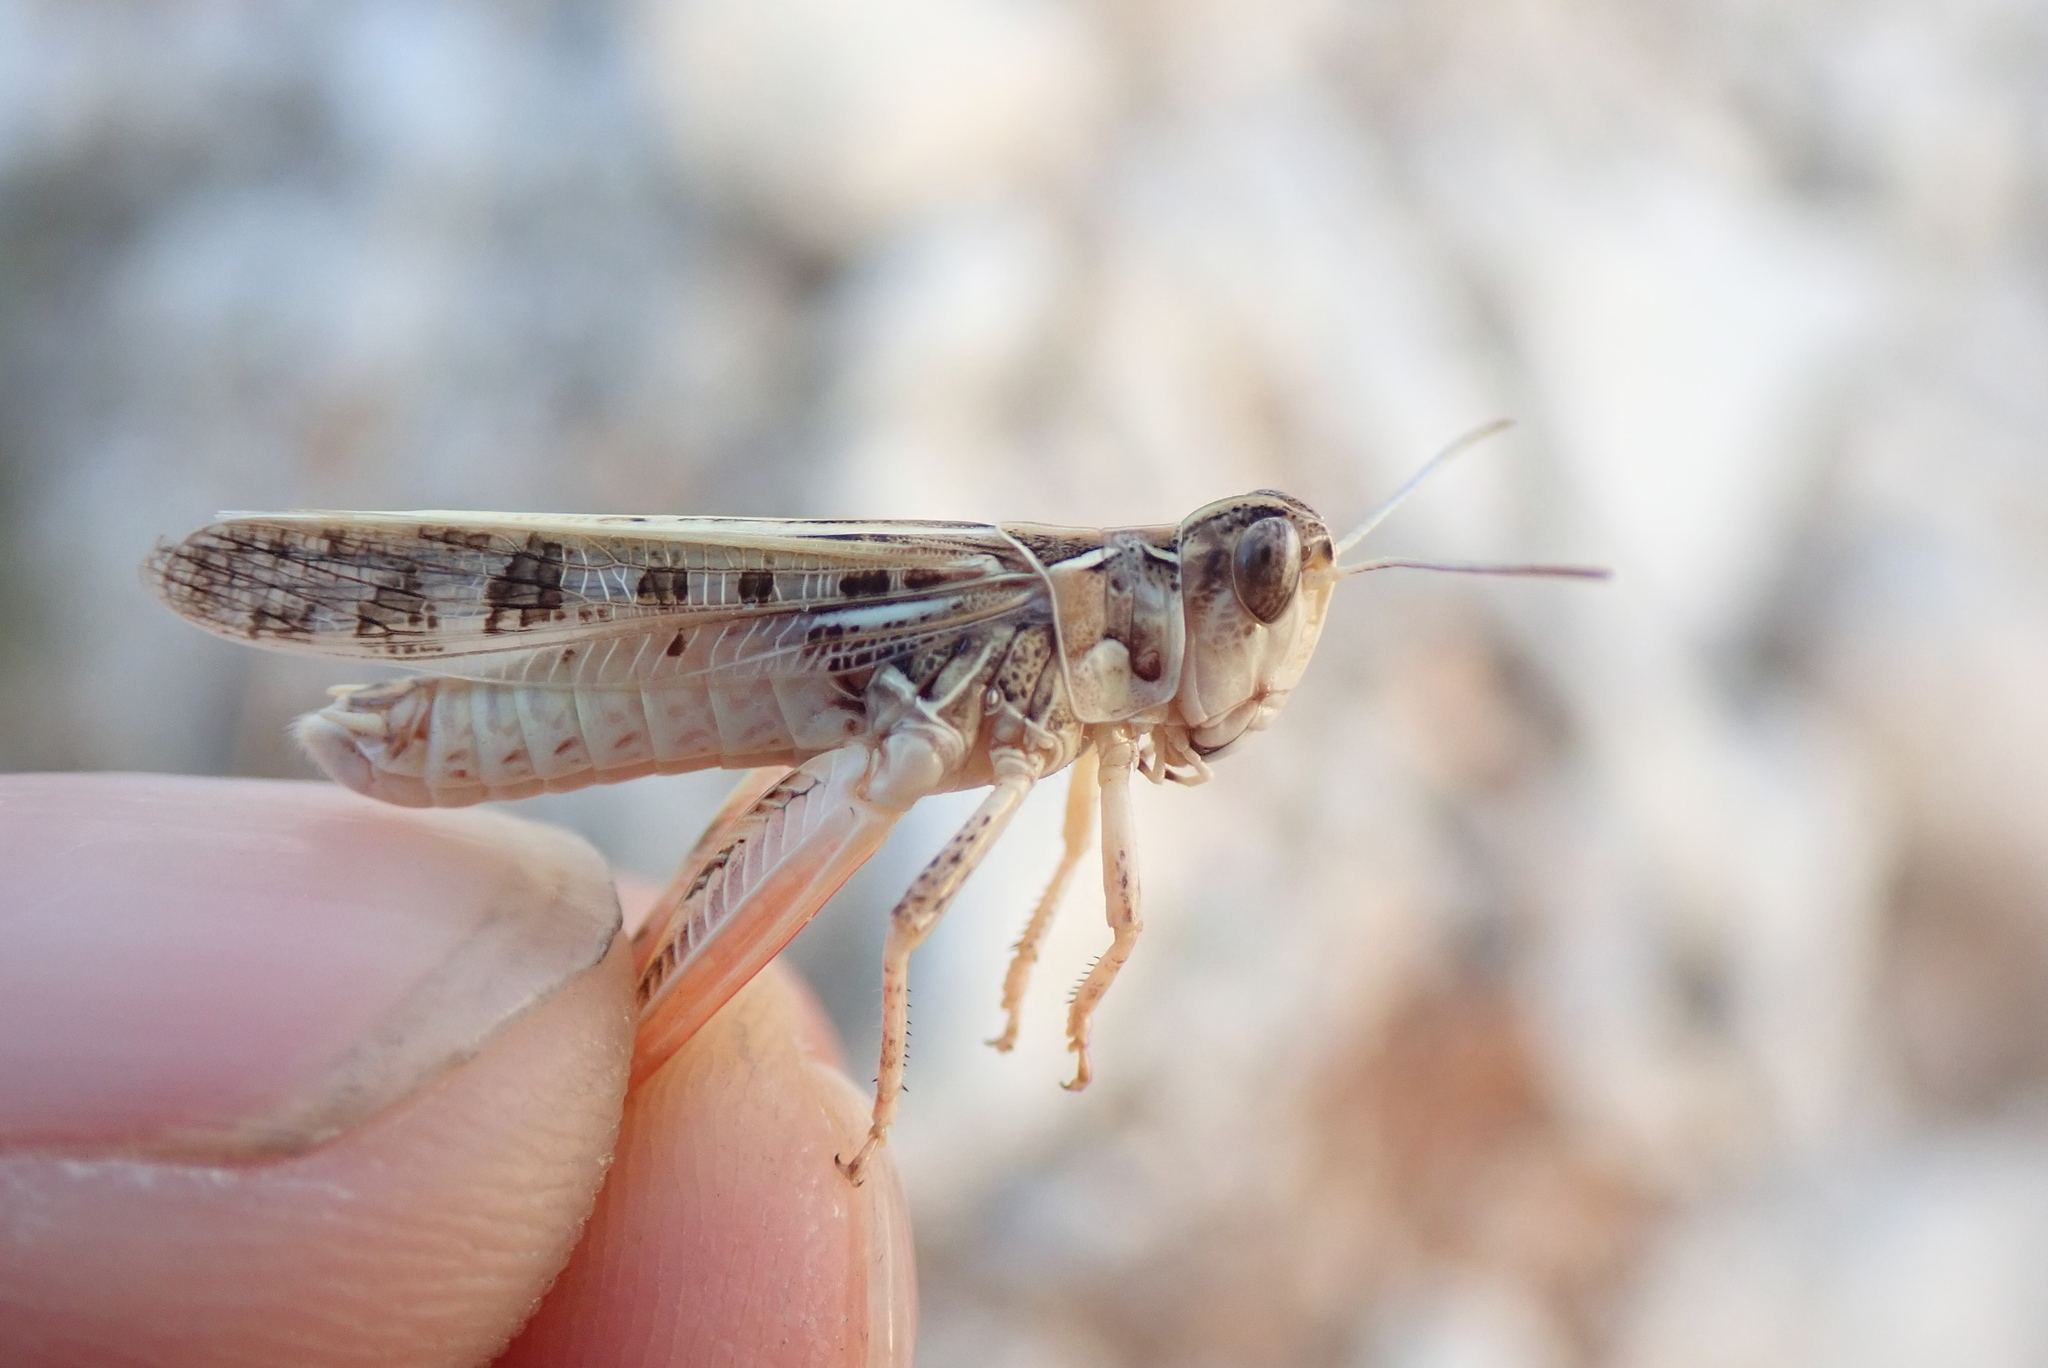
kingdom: Animalia
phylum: Arthropoda
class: Insecta
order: Orthoptera
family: Acrididae
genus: Dociostaurus
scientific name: Dociostaurus maroccanus
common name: Moroccan locust
